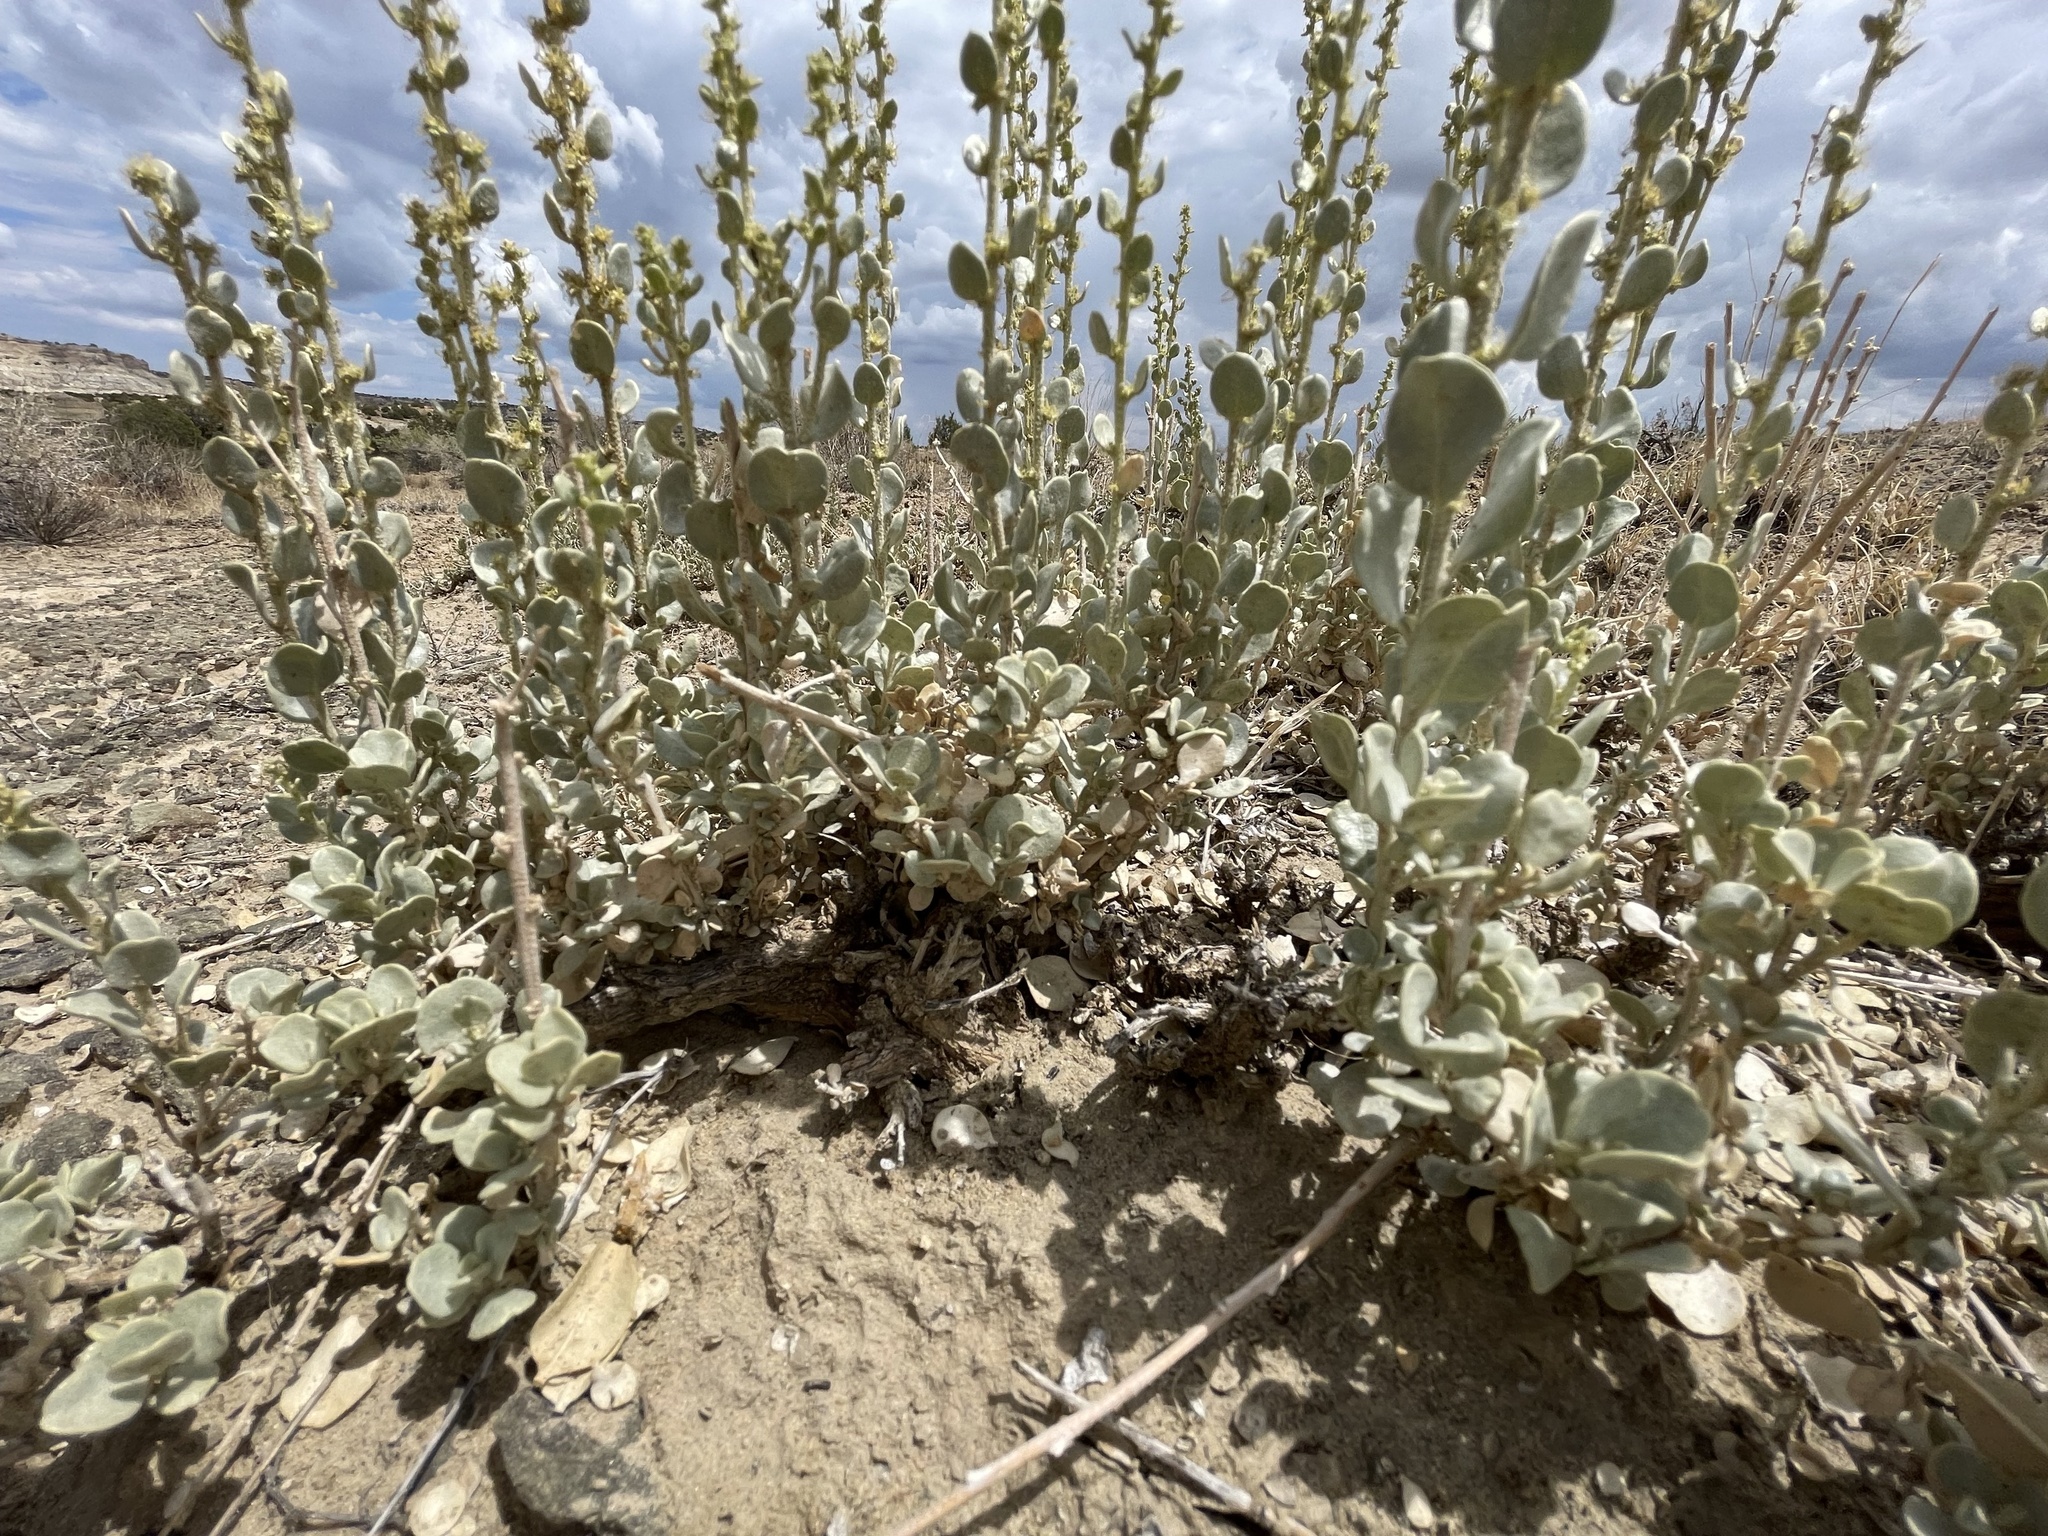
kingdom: Plantae
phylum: Tracheophyta
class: Magnoliopsida
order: Caryophyllales
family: Amaranthaceae
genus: Atriplex
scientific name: Atriplex obovata
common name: New mexico saltbush
